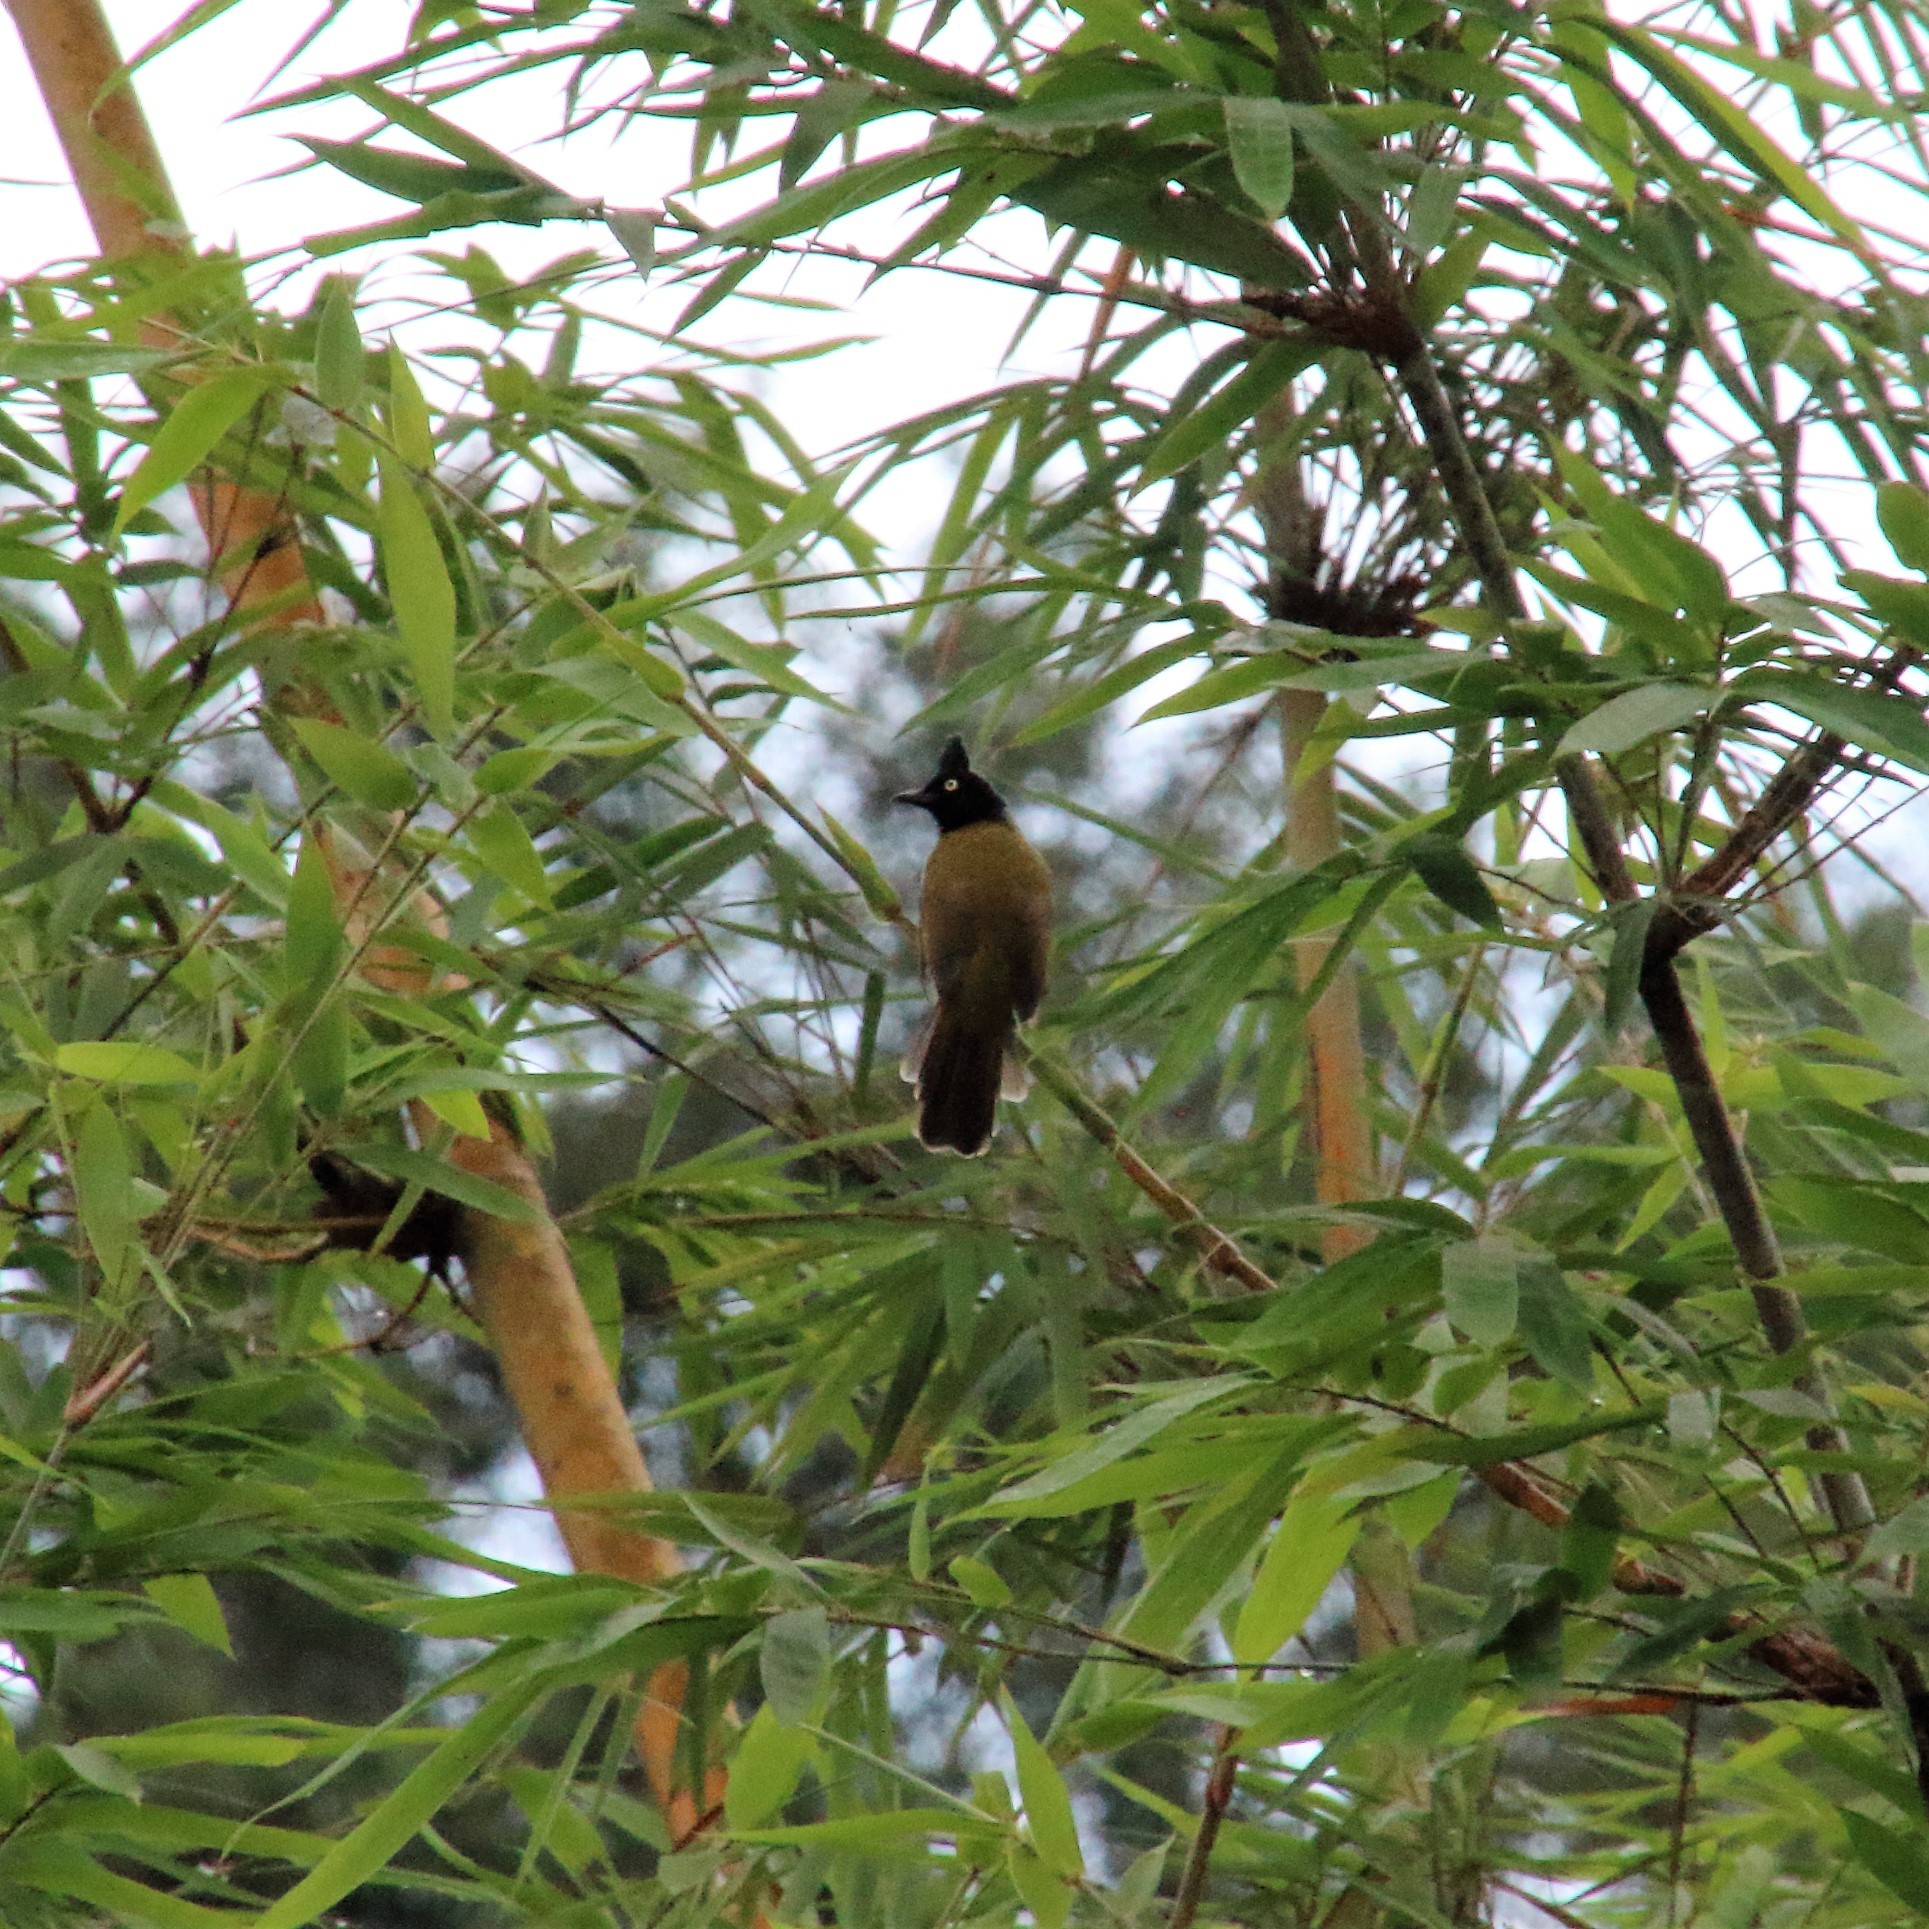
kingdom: Animalia
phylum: Chordata
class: Aves
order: Passeriformes
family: Pycnonotidae
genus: Pycnonotus
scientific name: Pycnonotus flaviventris
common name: Black-crested bulbul
